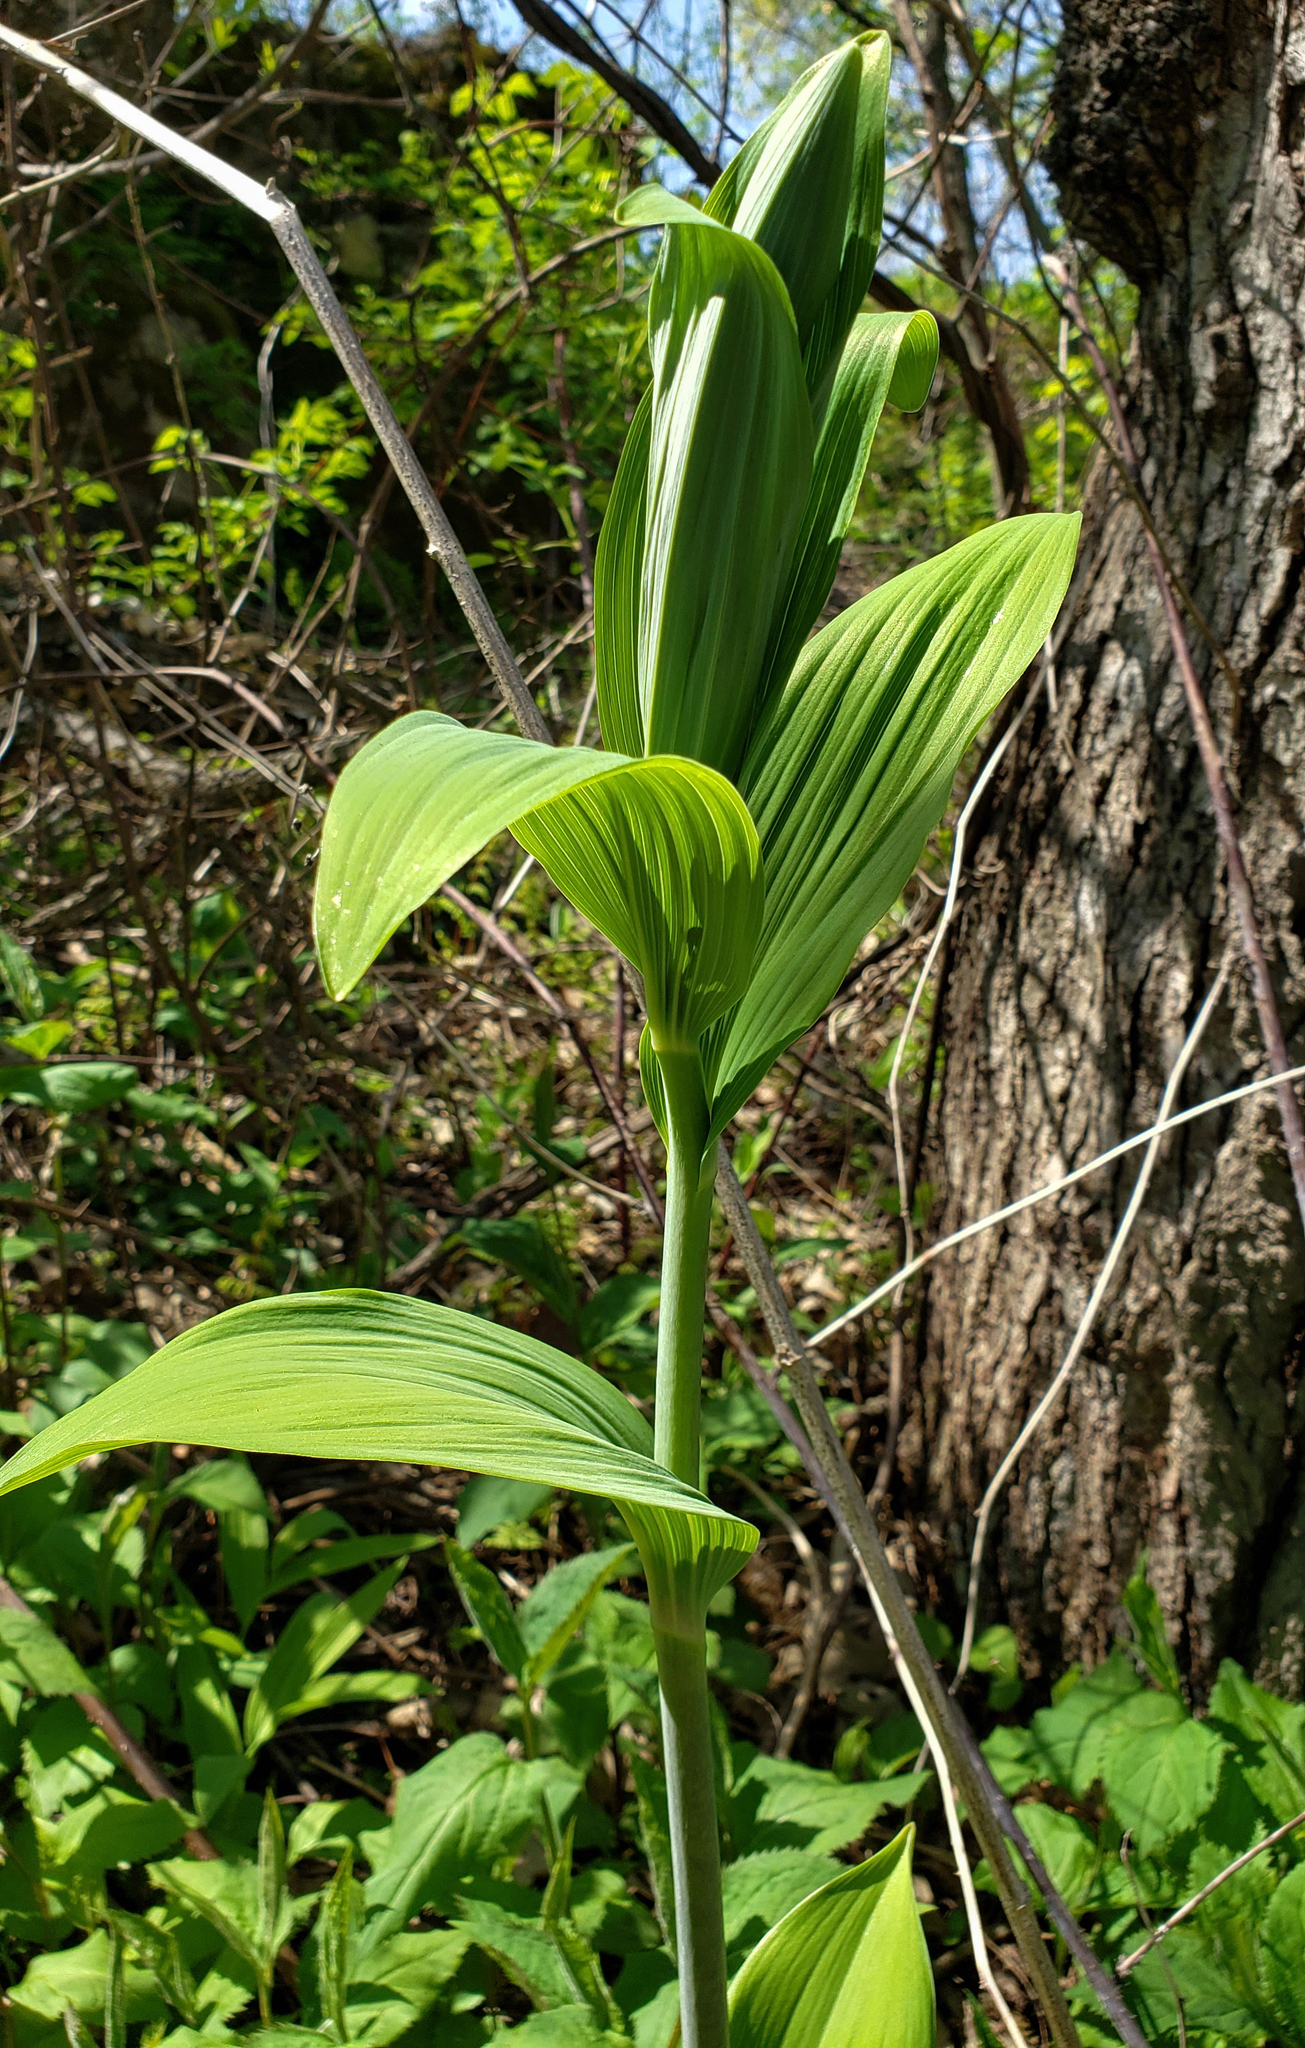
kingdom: Plantae
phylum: Tracheophyta
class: Liliopsida
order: Asparagales
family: Asparagaceae
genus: Polygonatum
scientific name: Polygonatum biflorum
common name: American solomon's-seal
